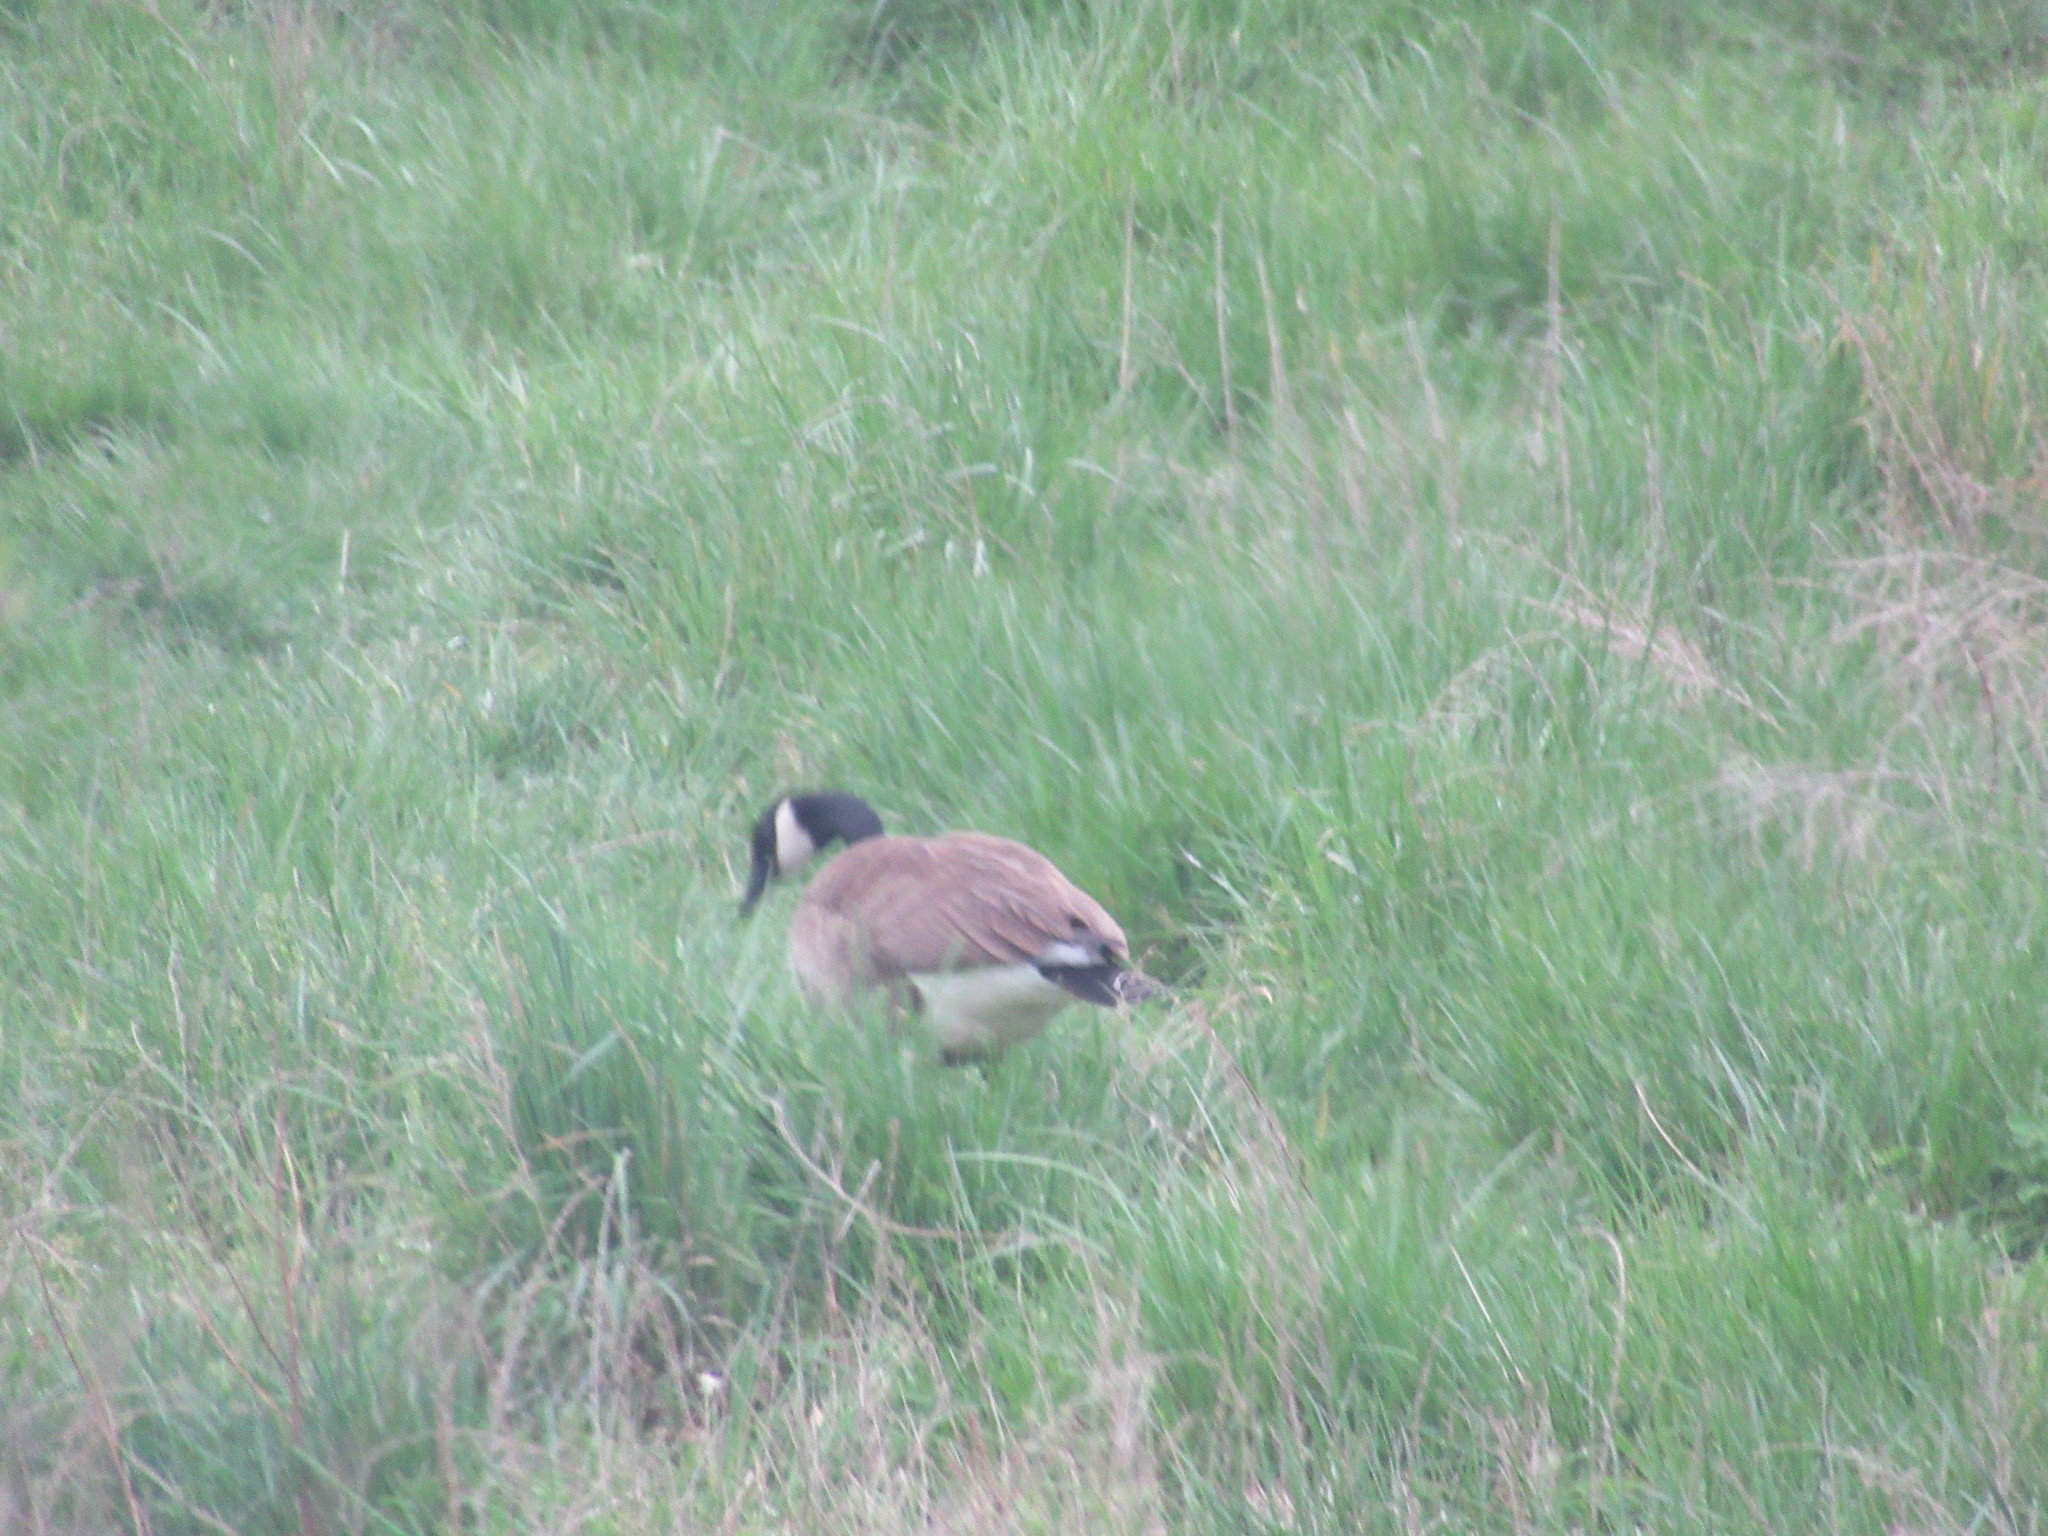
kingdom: Animalia
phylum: Chordata
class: Aves
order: Anseriformes
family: Anatidae
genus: Branta
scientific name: Branta canadensis
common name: Canada goose
